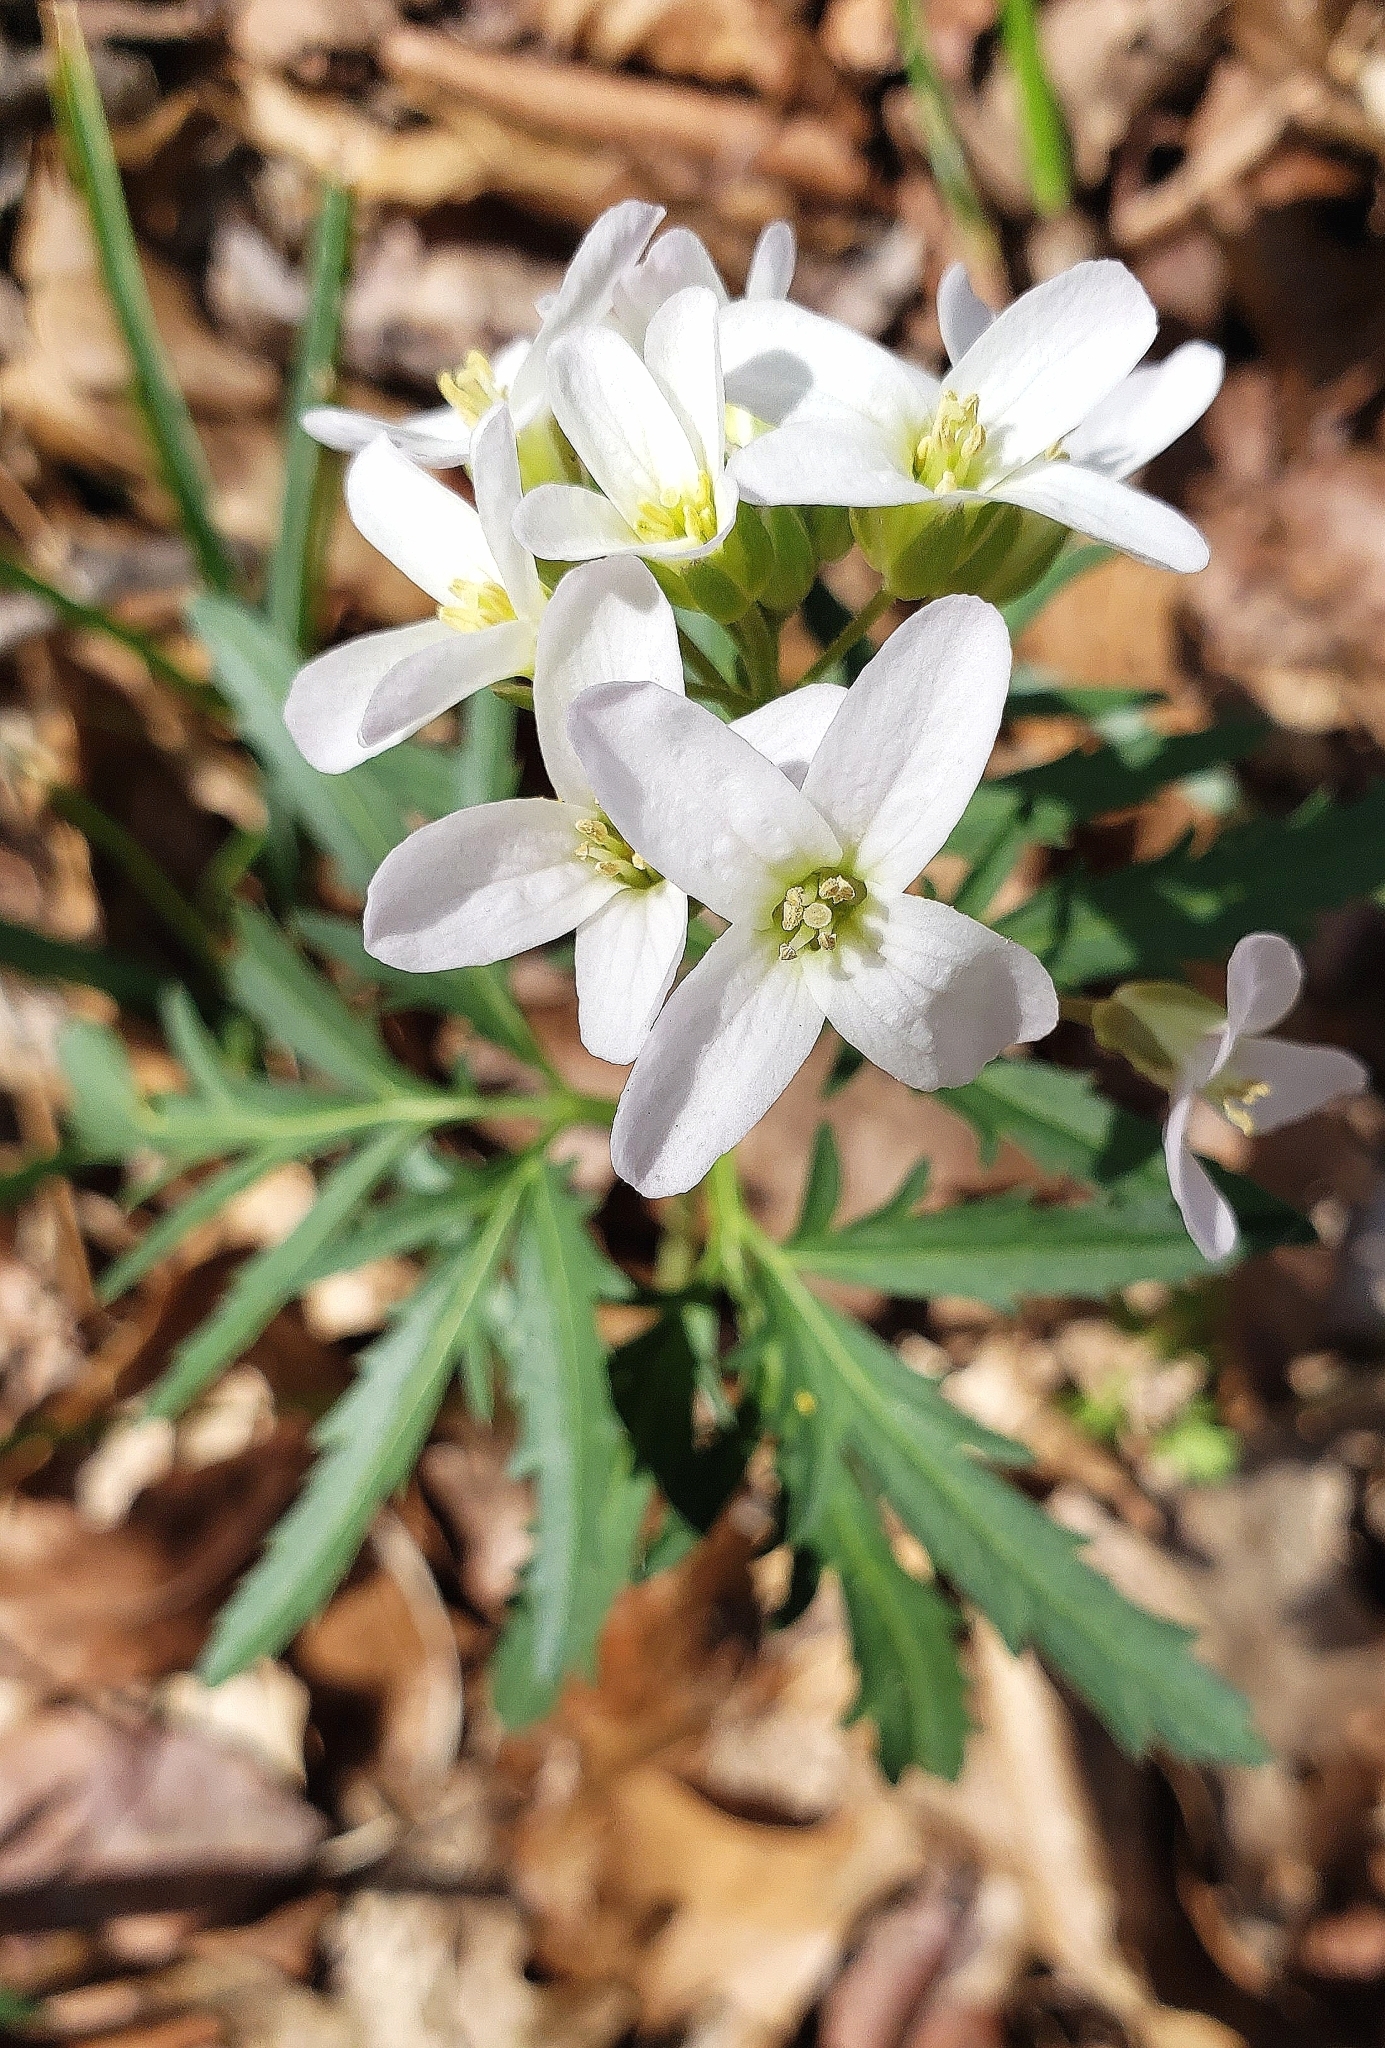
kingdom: Plantae
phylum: Tracheophyta
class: Magnoliopsida
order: Brassicales
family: Brassicaceae
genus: Cardamine
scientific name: Cardamine concatenata
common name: Cut-leaf toothcup
